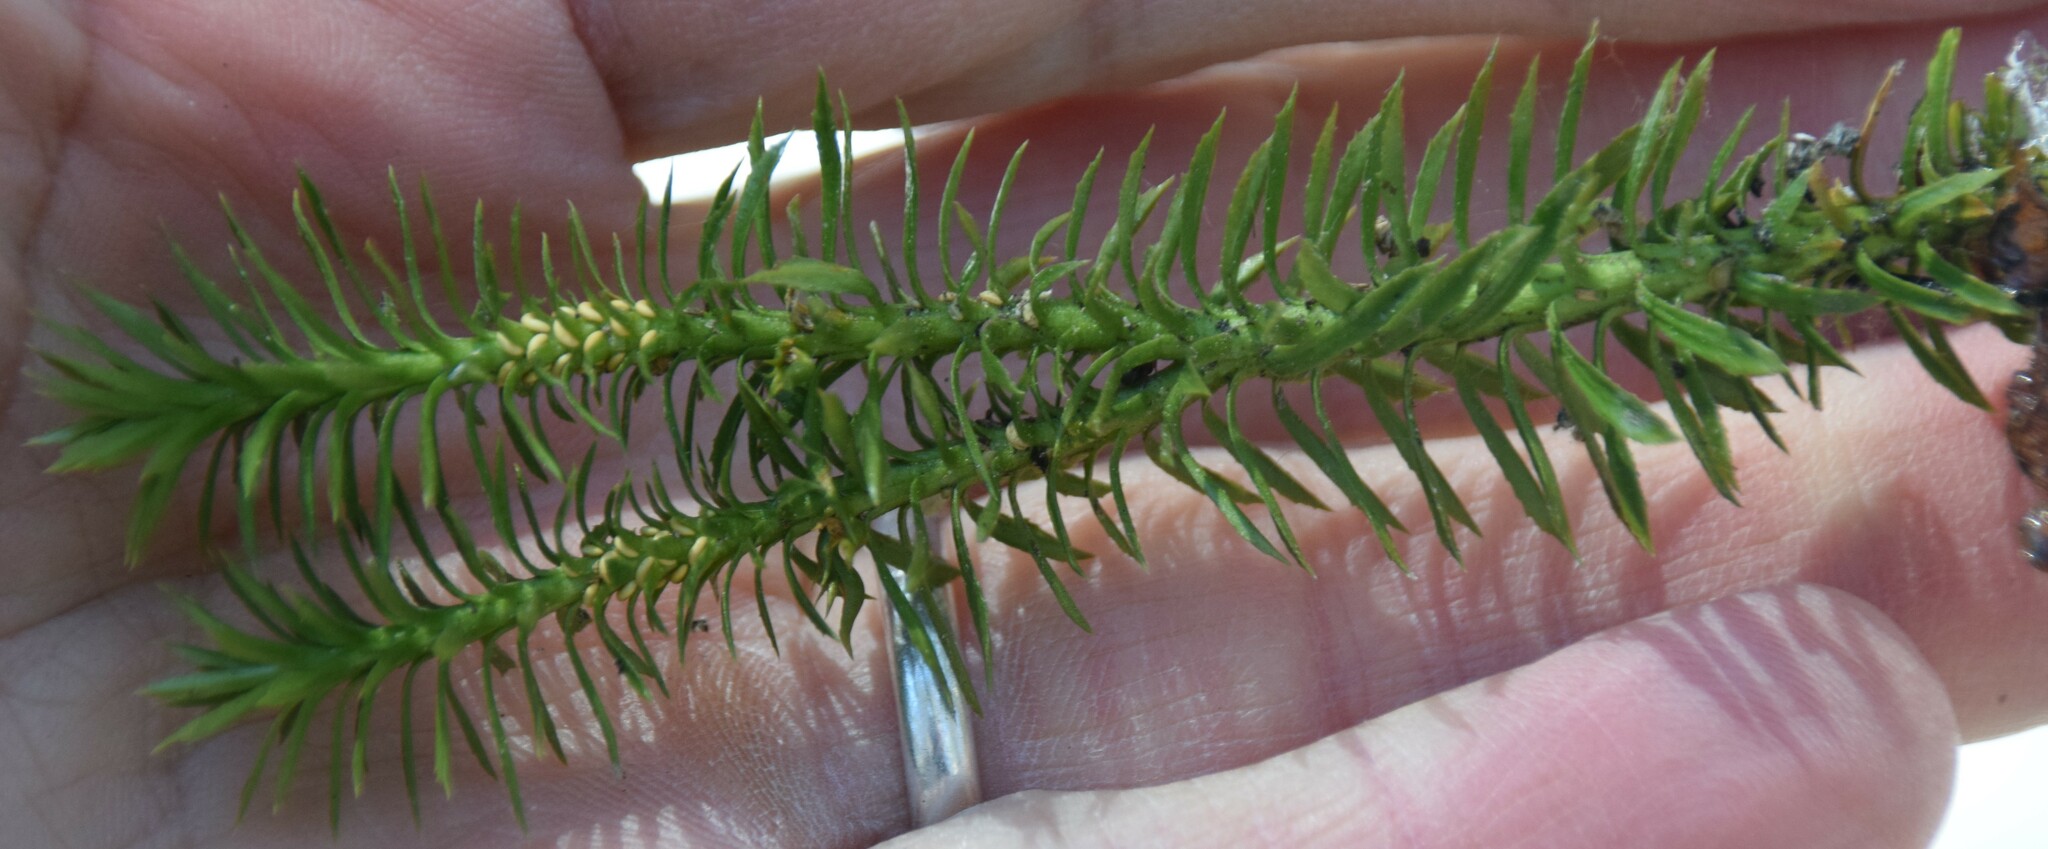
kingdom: Plantae
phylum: Tracheophyta
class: Lycopodiopsida
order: Lycopodiales
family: Lycopodiaceae
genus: Huperzia
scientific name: Huperzia lucidula
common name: Shining clubmoss
